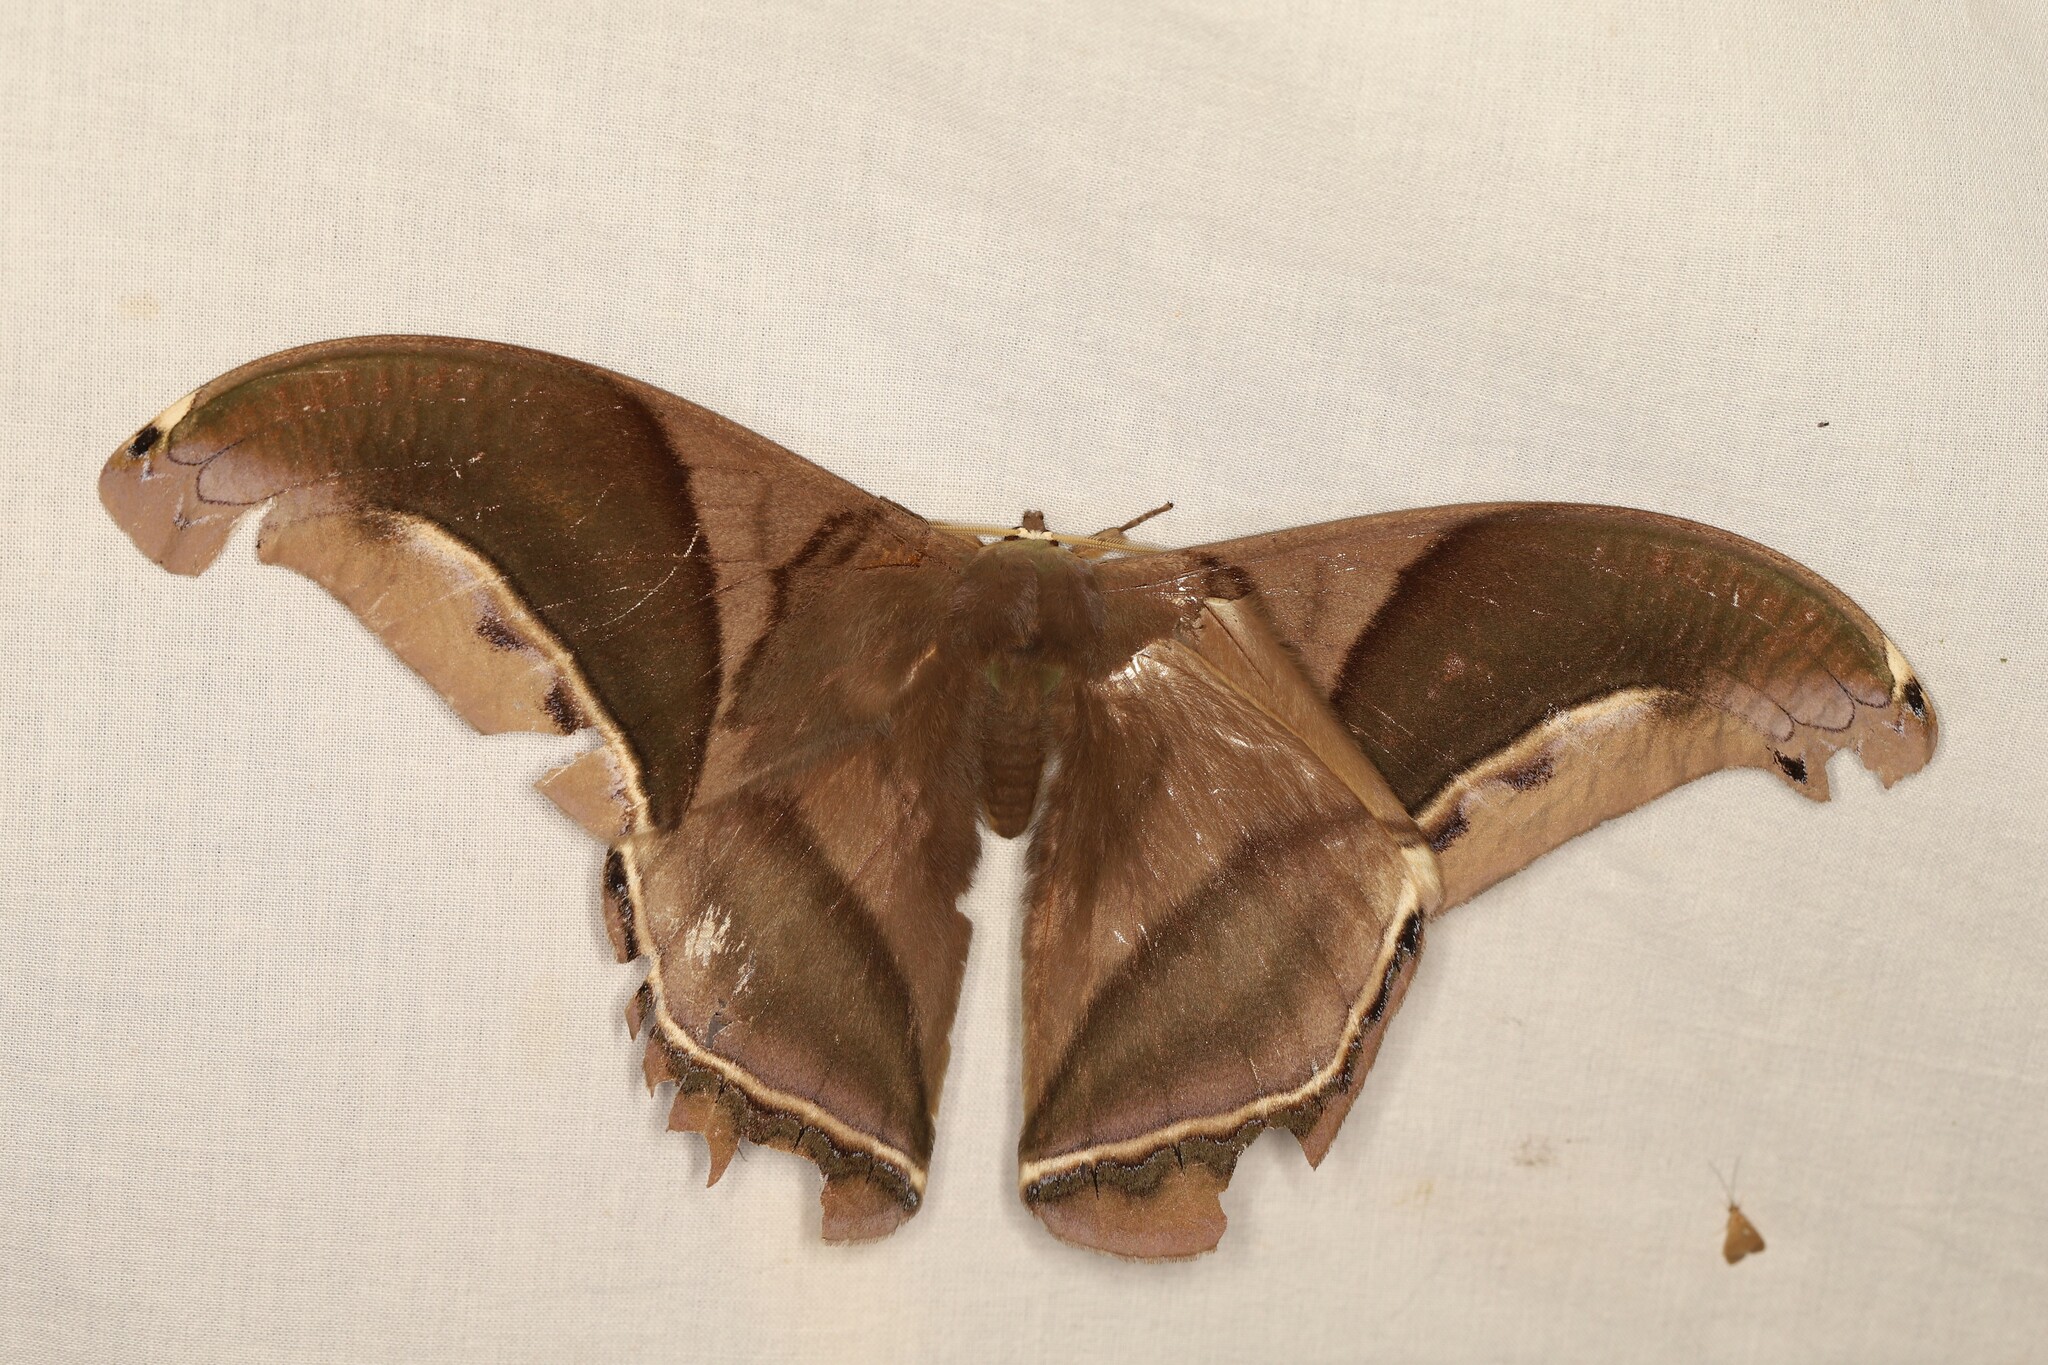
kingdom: Animalia
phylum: Arthropoda
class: Insecta
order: Lepidoptera
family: Saturniidae
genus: Rhescyntis
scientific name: Rhescyntis hippodamia
